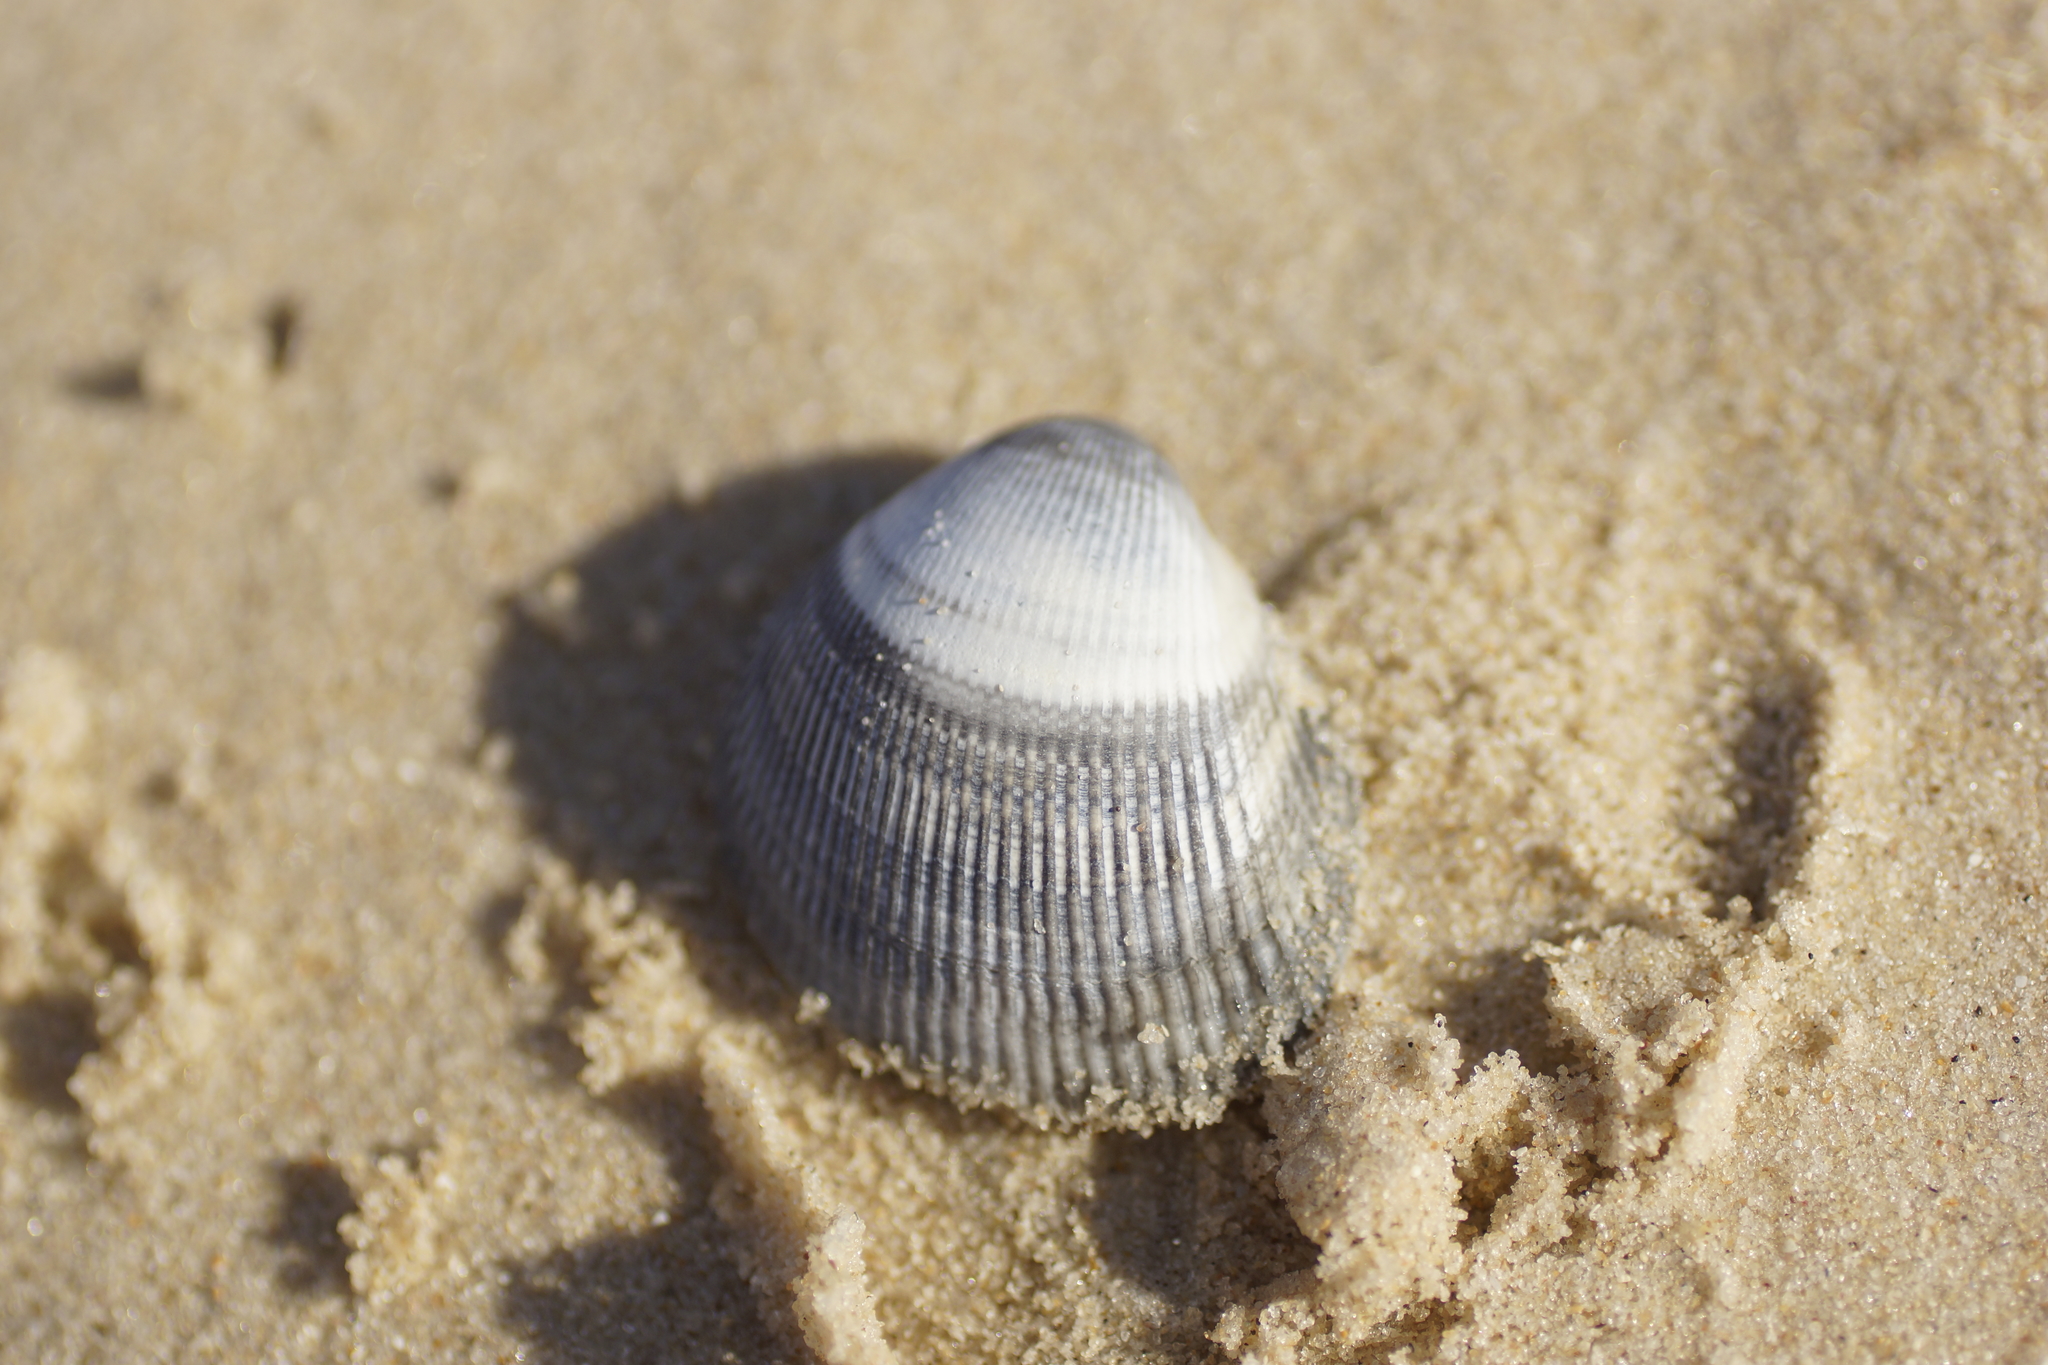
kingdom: Animalia
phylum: Mollusca
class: Bivalvia
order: Cardiida
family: Cardiidae
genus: Fulvia
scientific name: Fulvia tenuicostata
